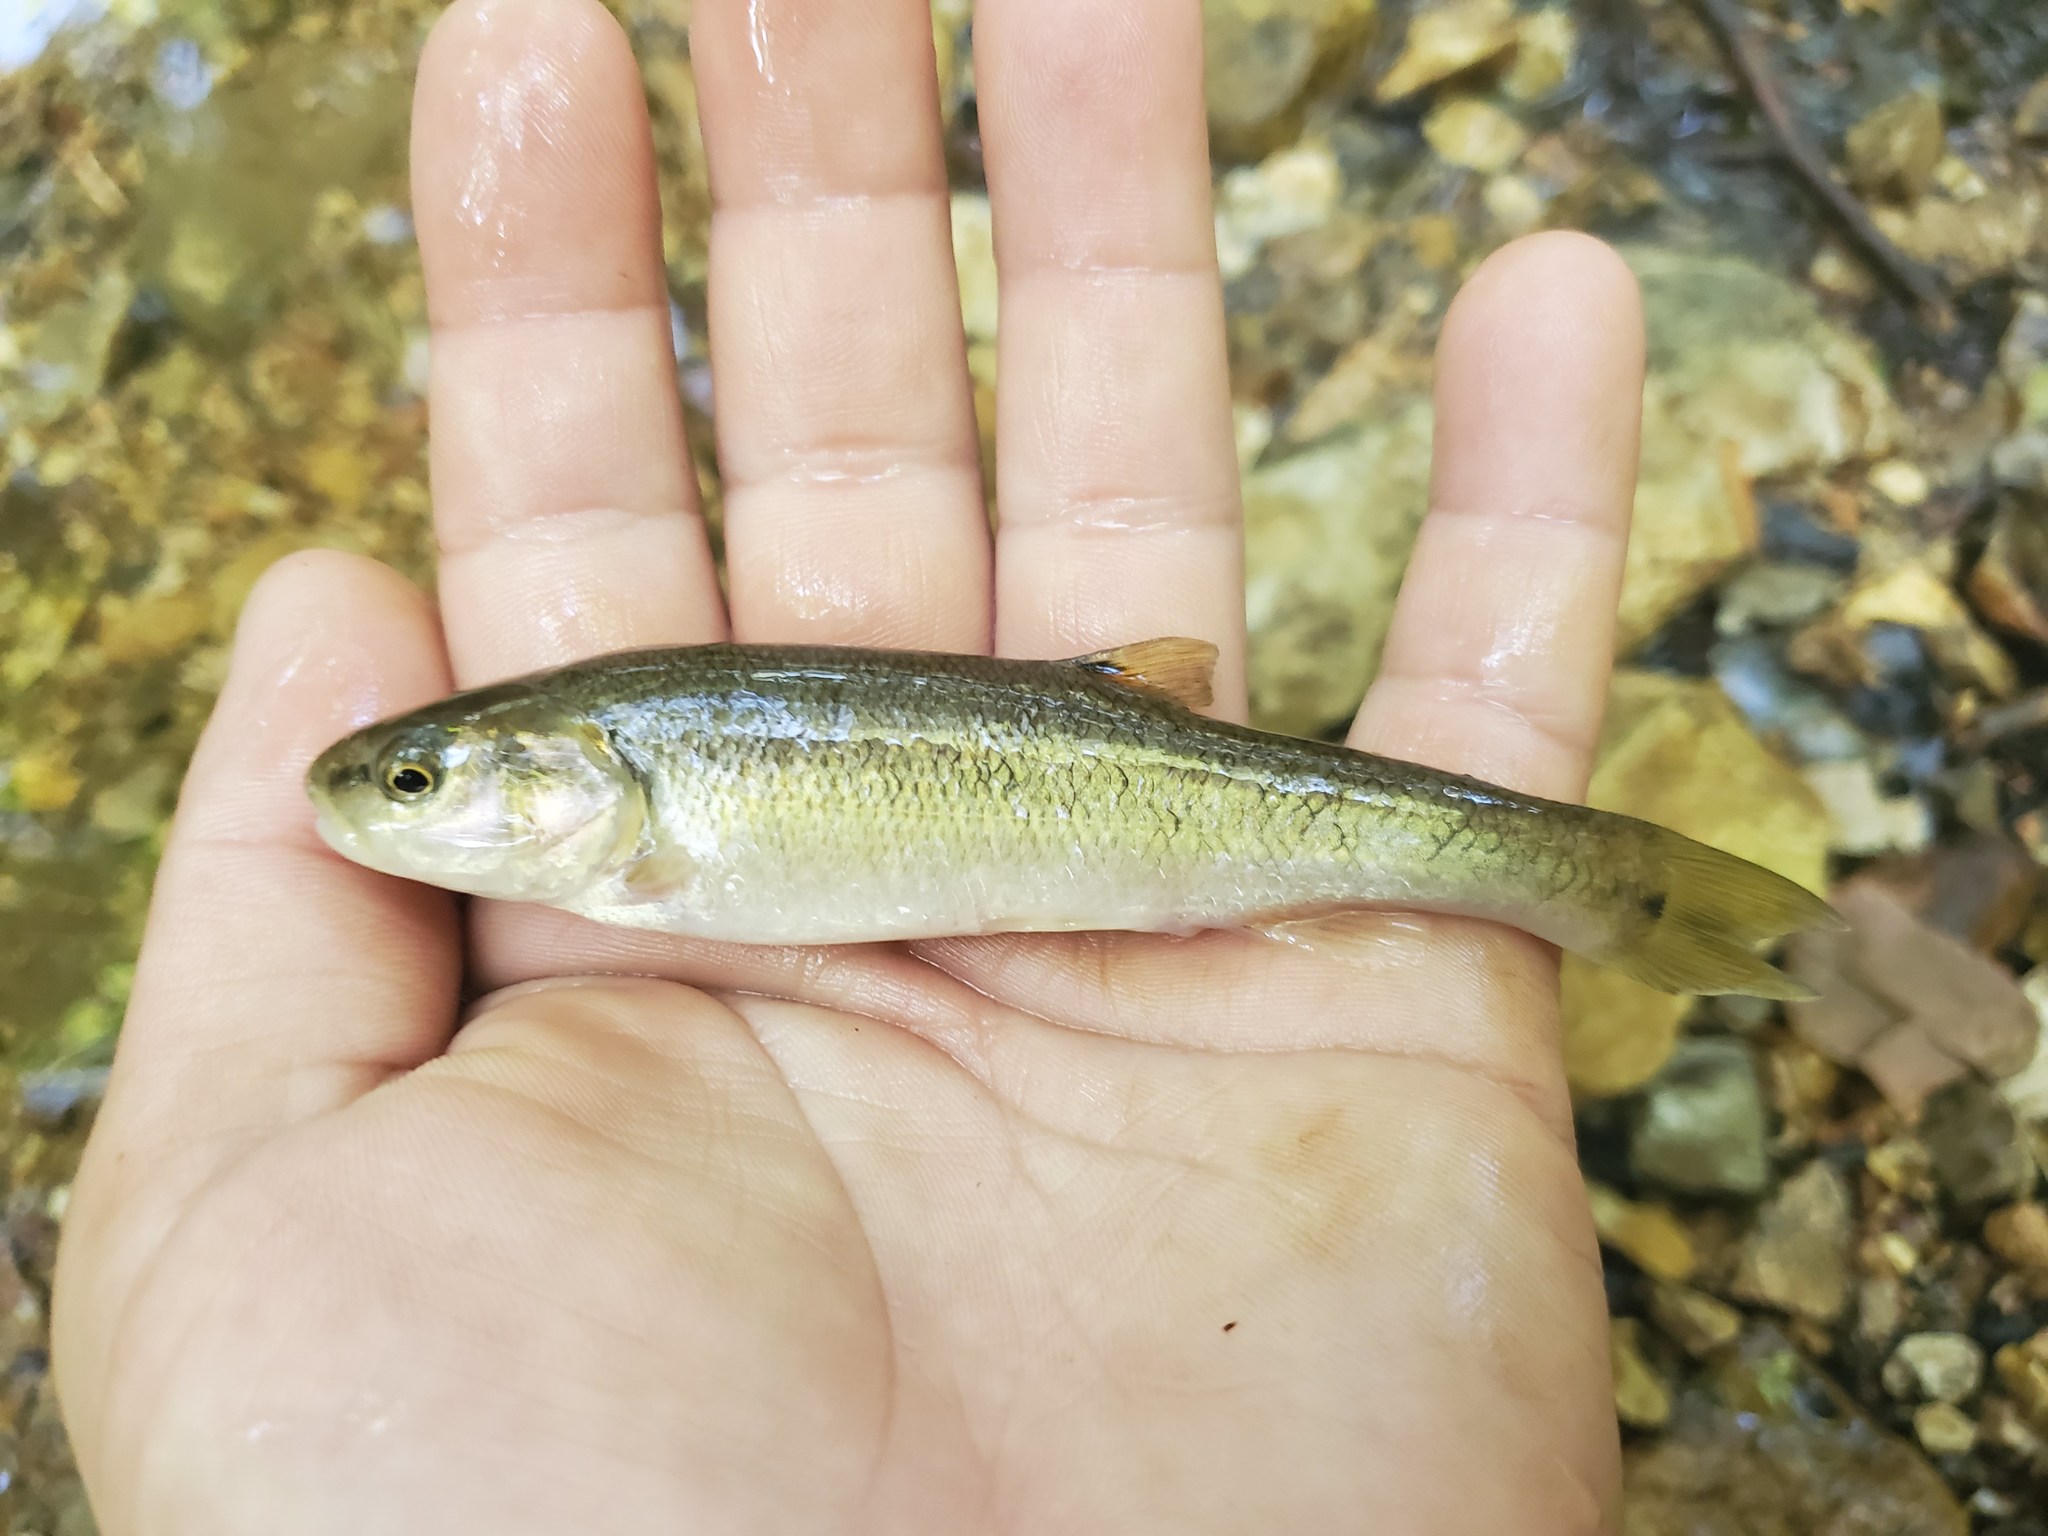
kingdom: Animalia
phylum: Chordata
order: Cypriniformes
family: Cyprinidae
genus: Semotilus
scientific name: Semotilus atromaculatus
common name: Creek chub
